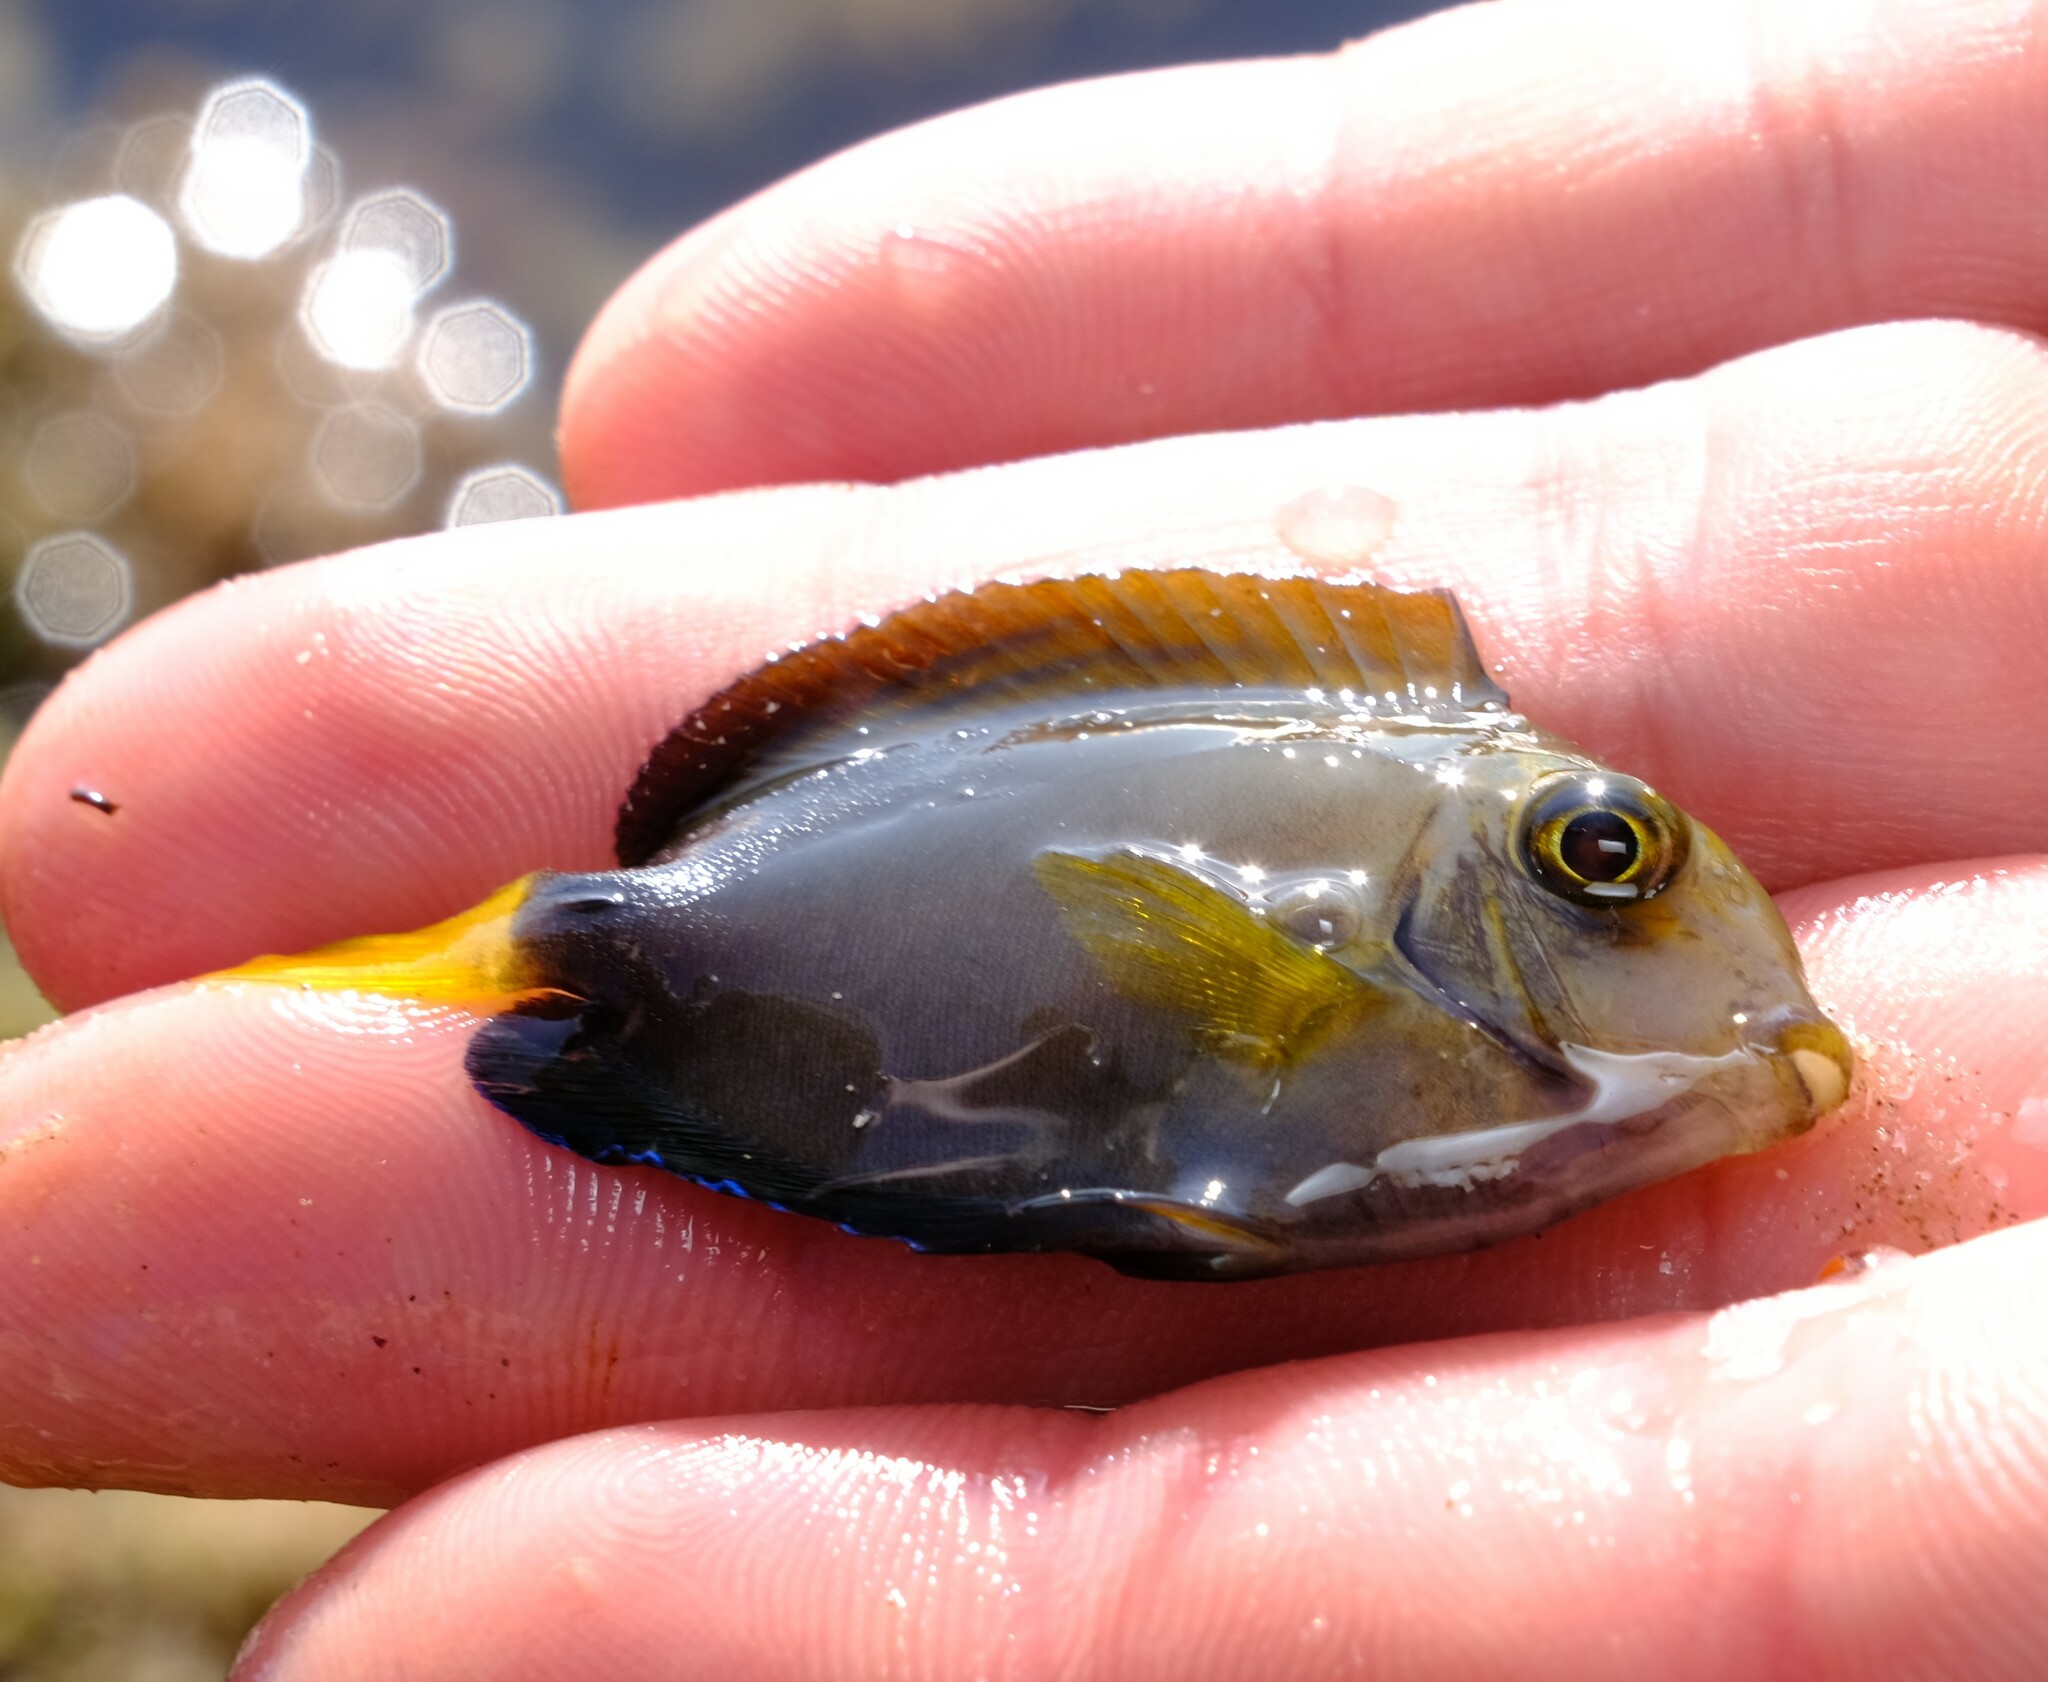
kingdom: Animalia
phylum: Chordata
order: Perciformes
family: Acanthuridae
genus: Acanthurus
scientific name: Acanthurus dussumieri
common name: Dussumier's surgeonfish
